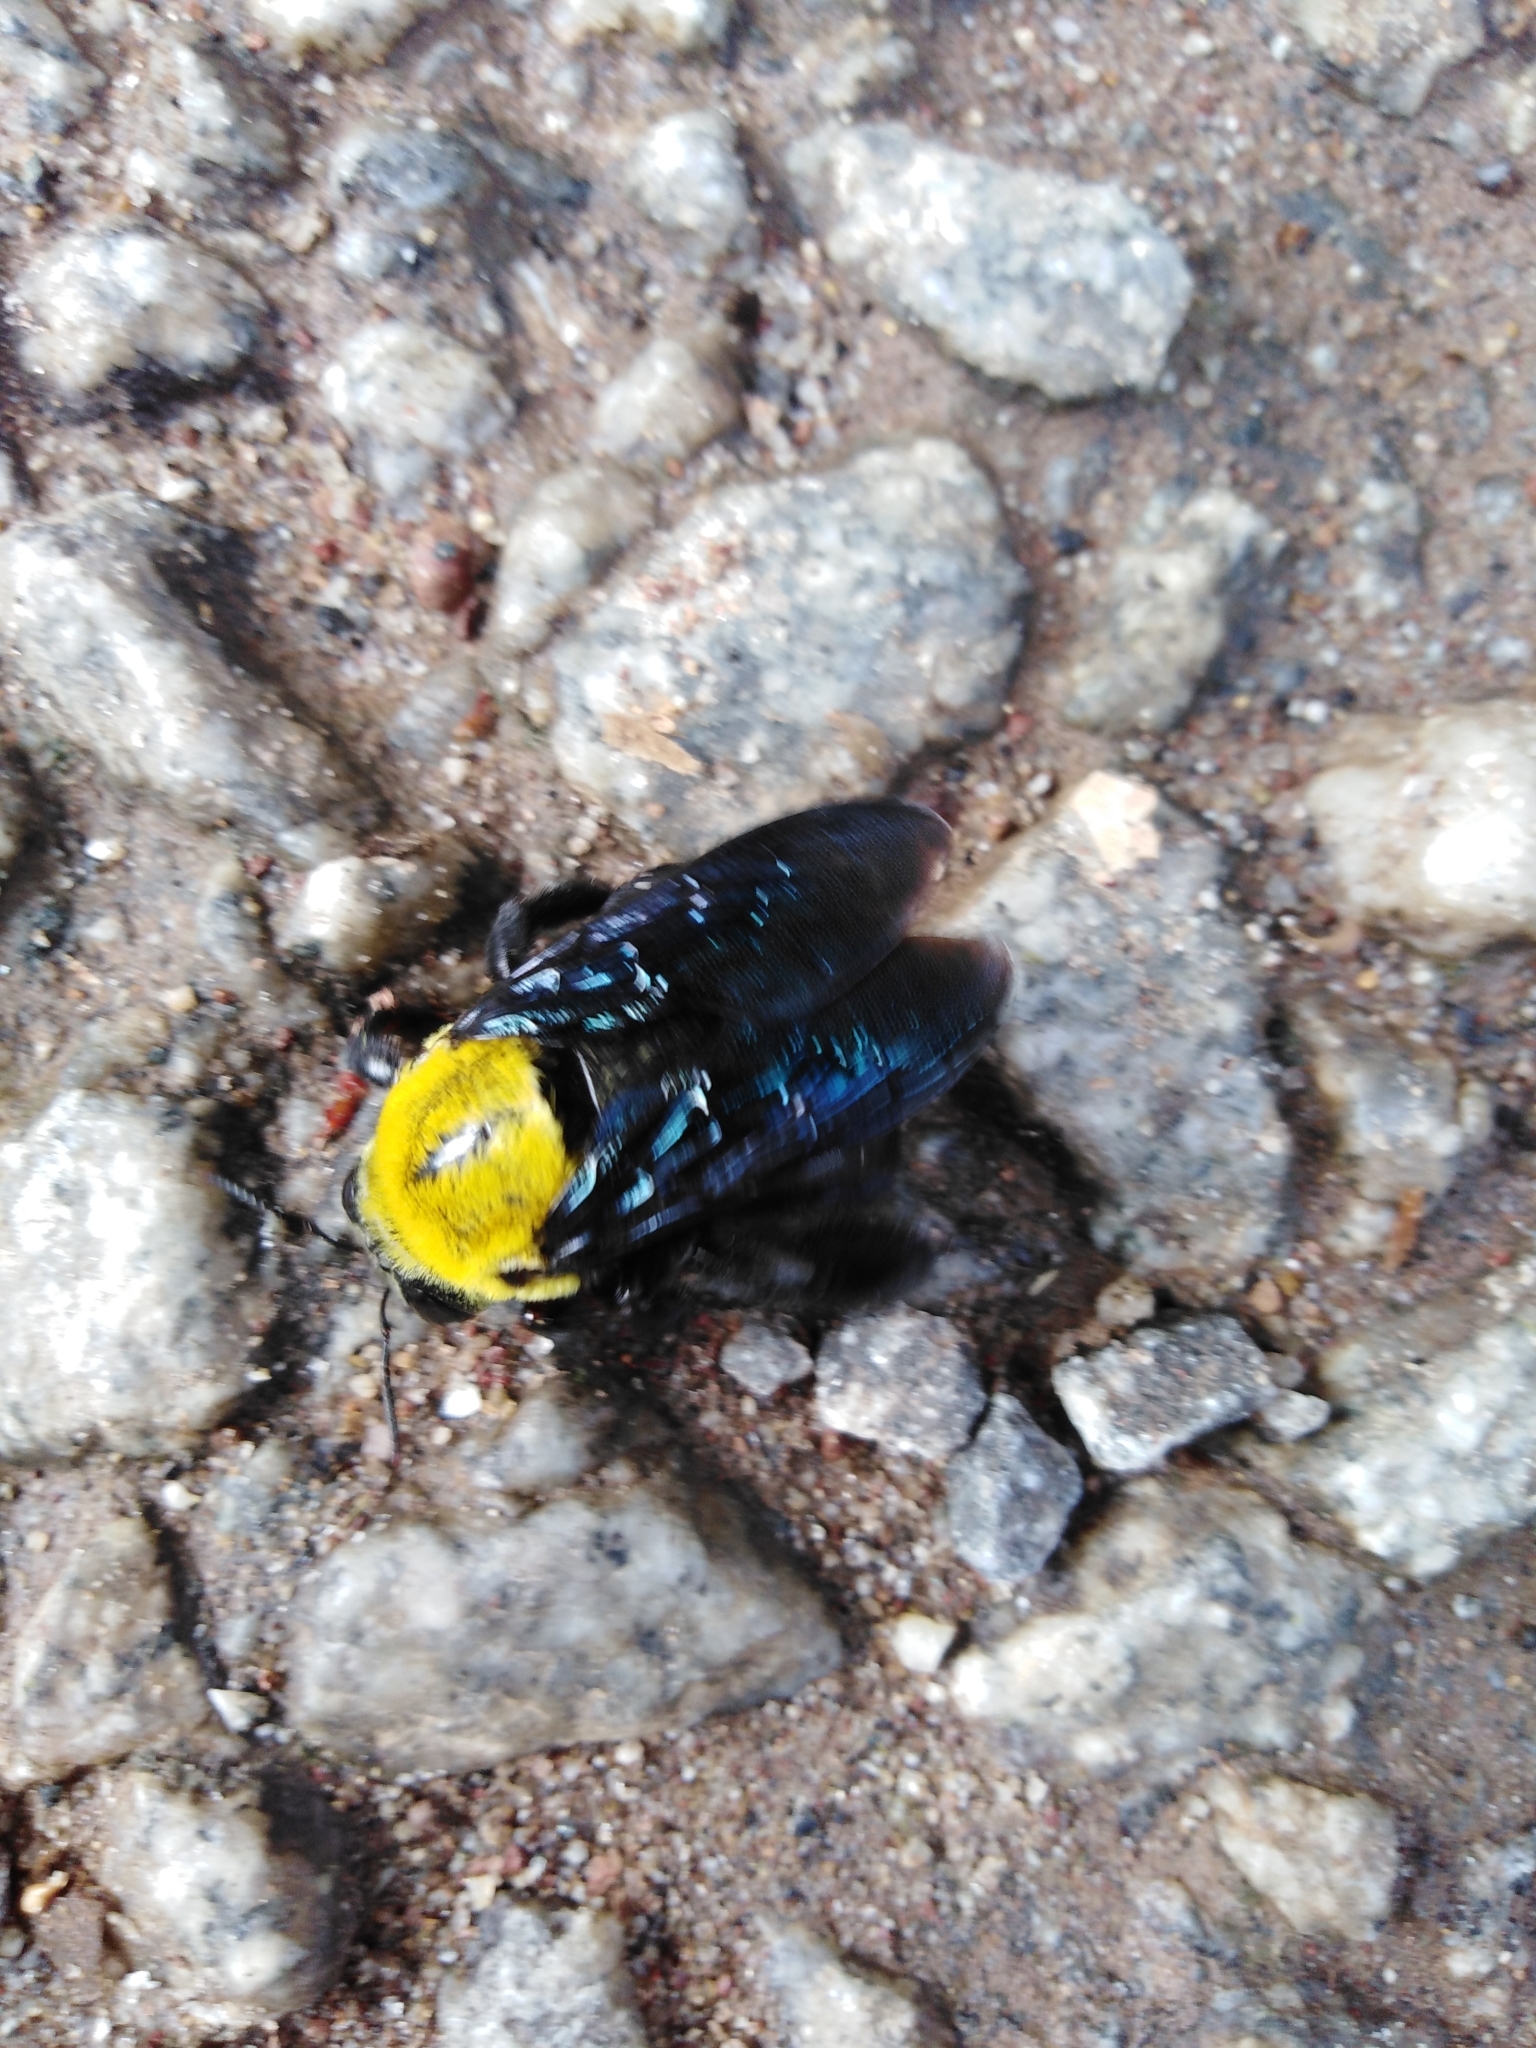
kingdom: Animalia
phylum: Arthropoda
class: Insecta
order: Hymenoptera
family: Apidae
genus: Xylocopa
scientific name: Xylocopa ruficornis
